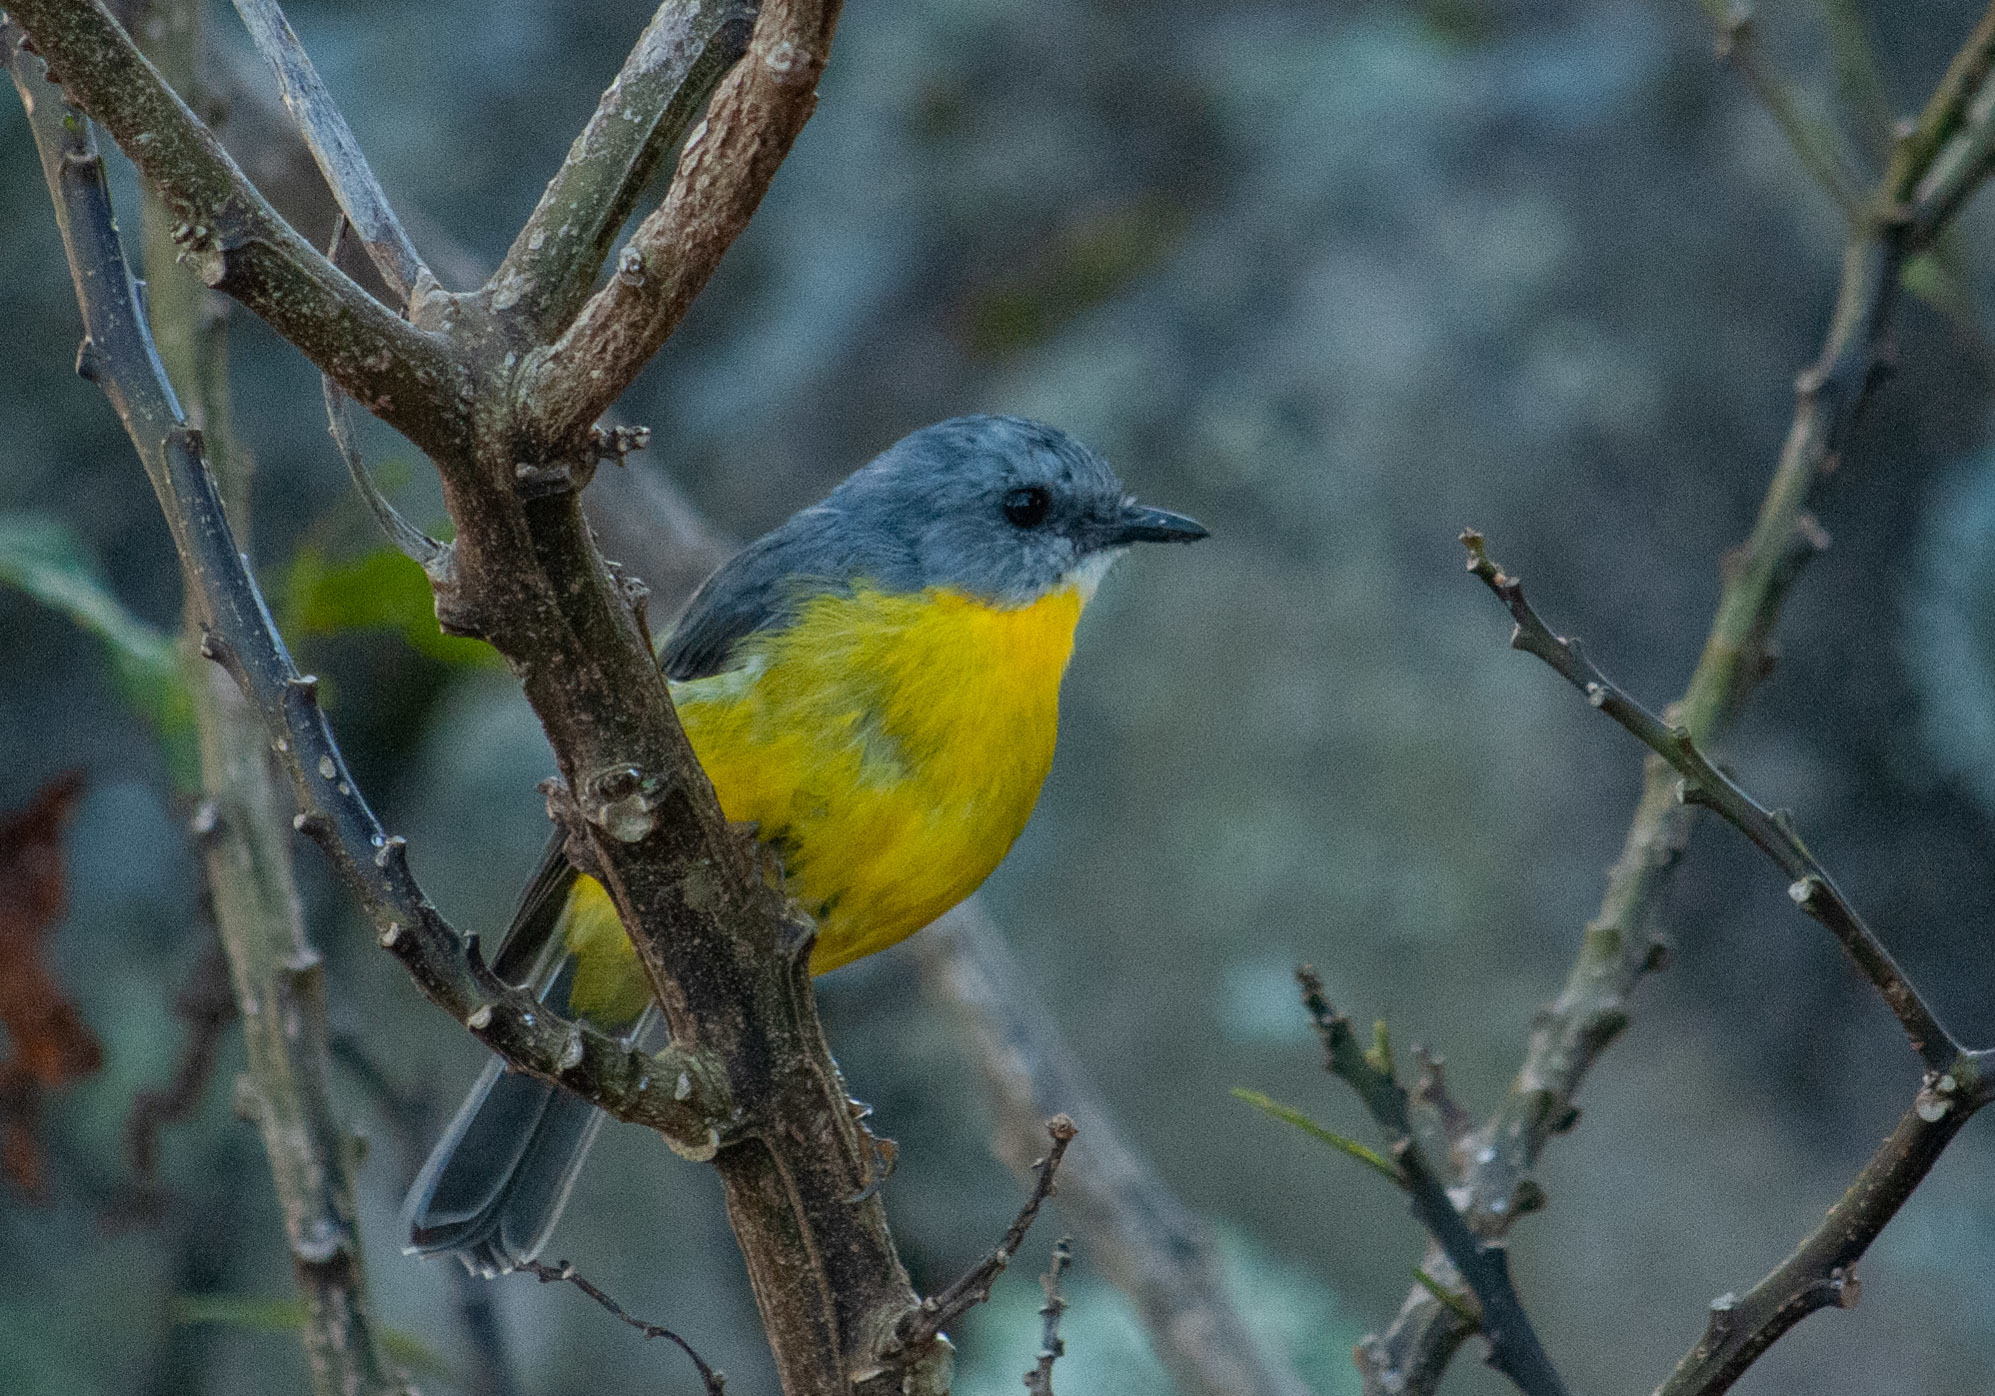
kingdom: Animalia
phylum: Chordata
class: Aves
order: Passeriformes
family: Petroicidae
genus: Eopsaltria
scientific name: Eopsaltria australis
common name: Eastern yellow robin
